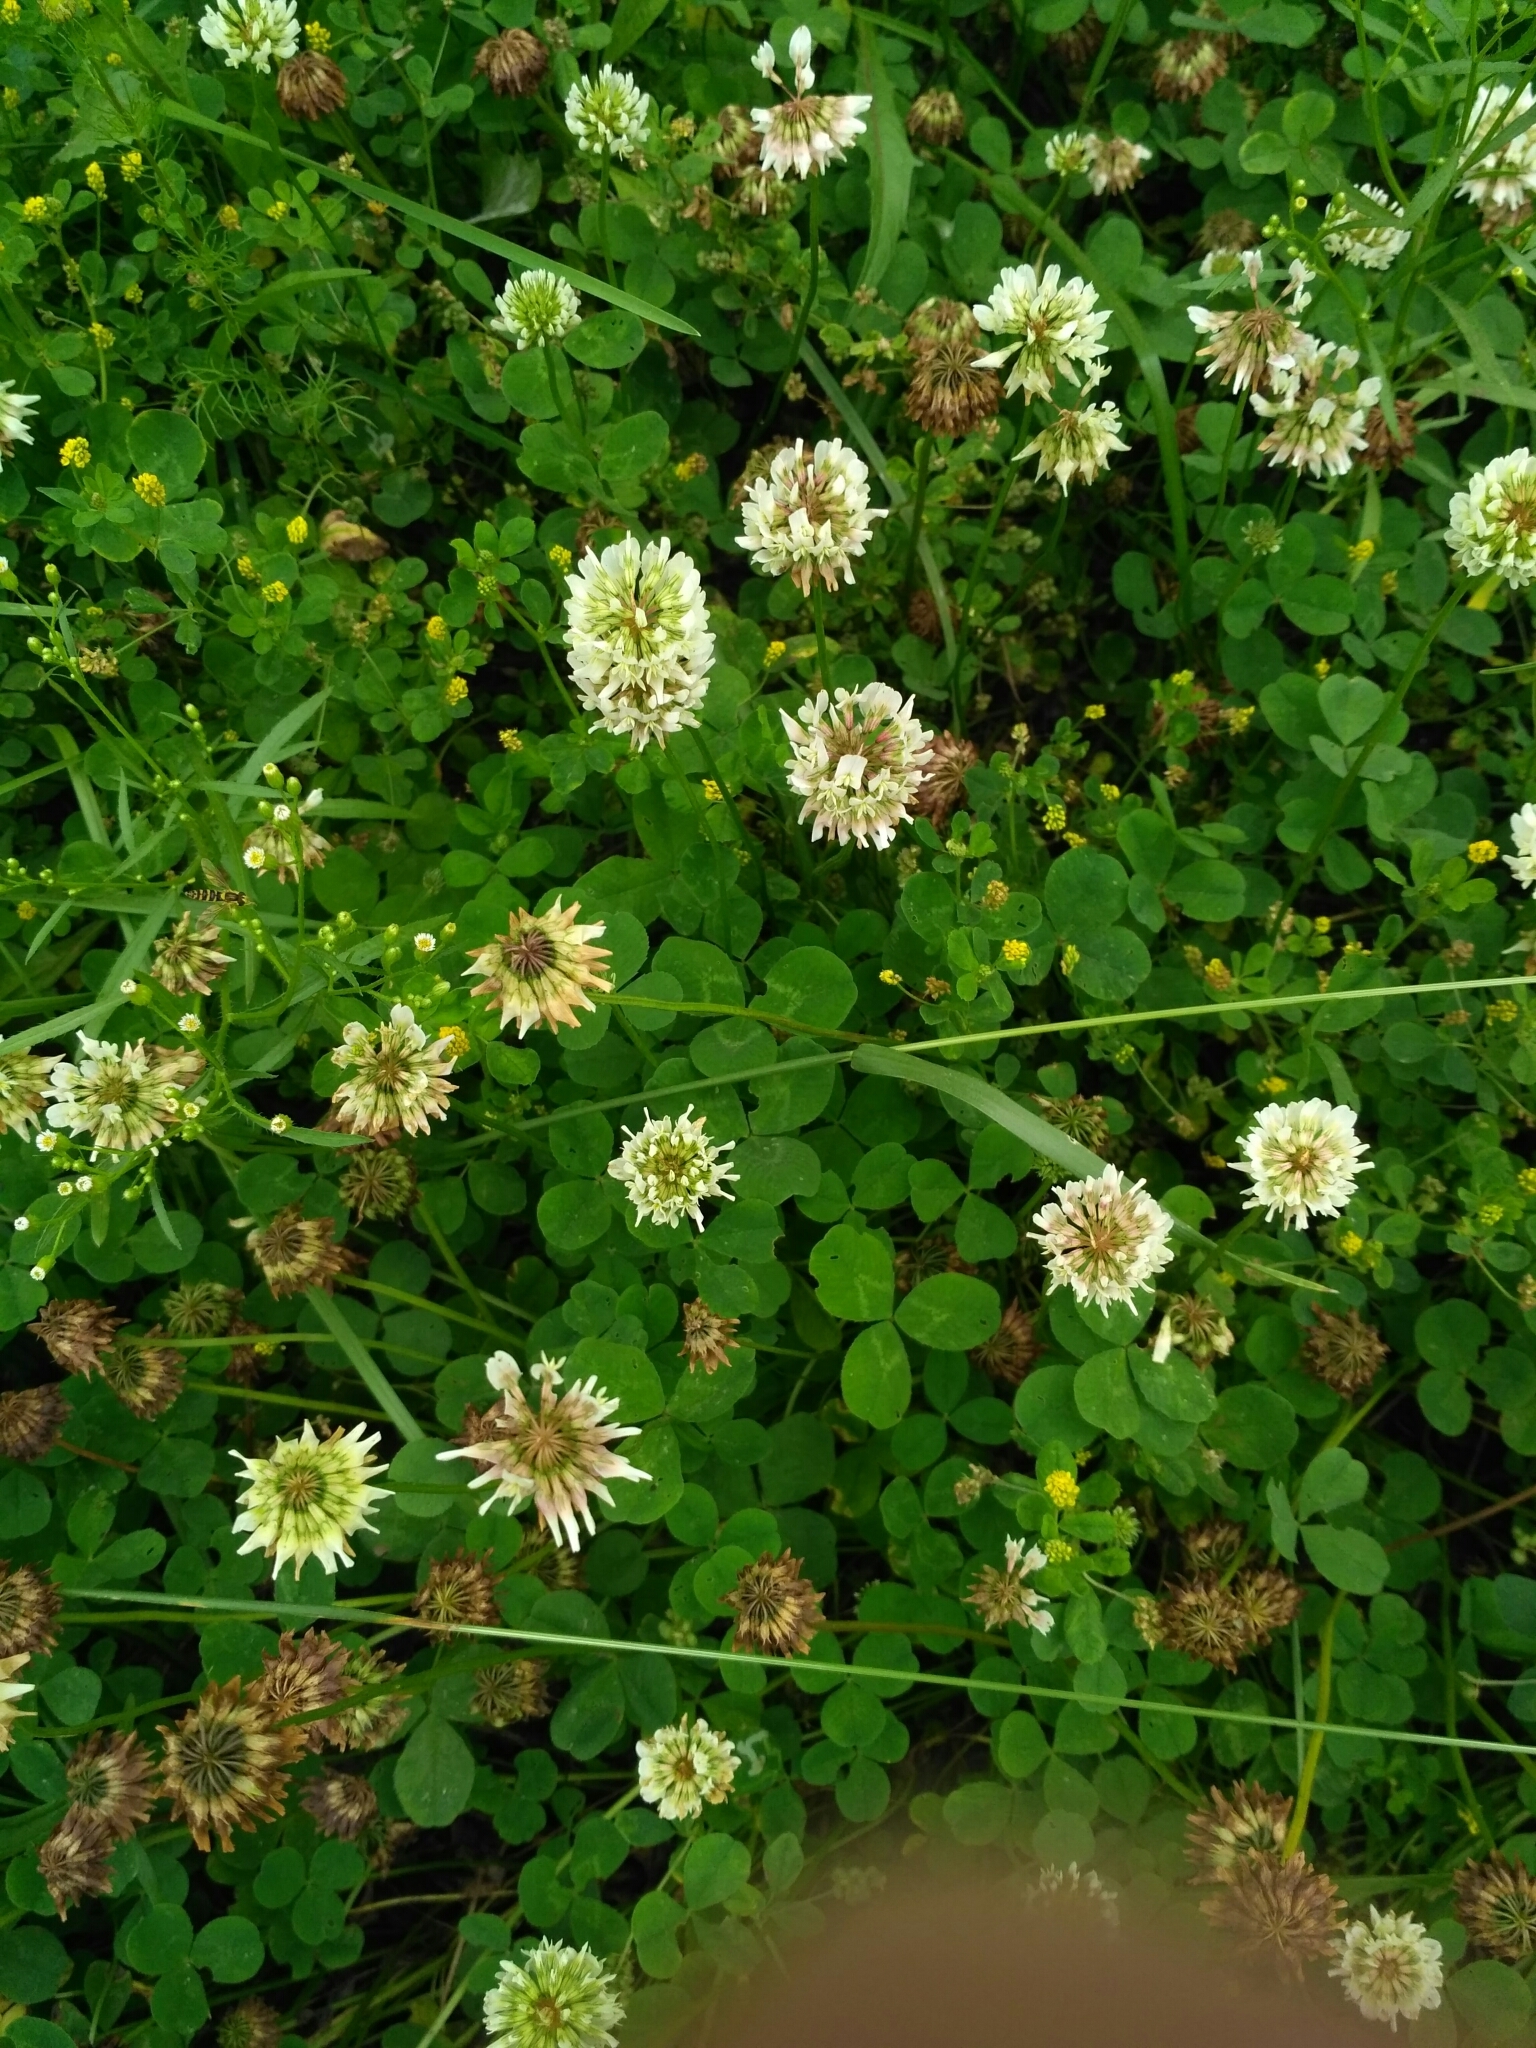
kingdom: Plantae
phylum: Tracheophyta
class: Magnoliopsida
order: Fabales
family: Fabaceae
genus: Trifolium
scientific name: Trifolium repens
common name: White clover
